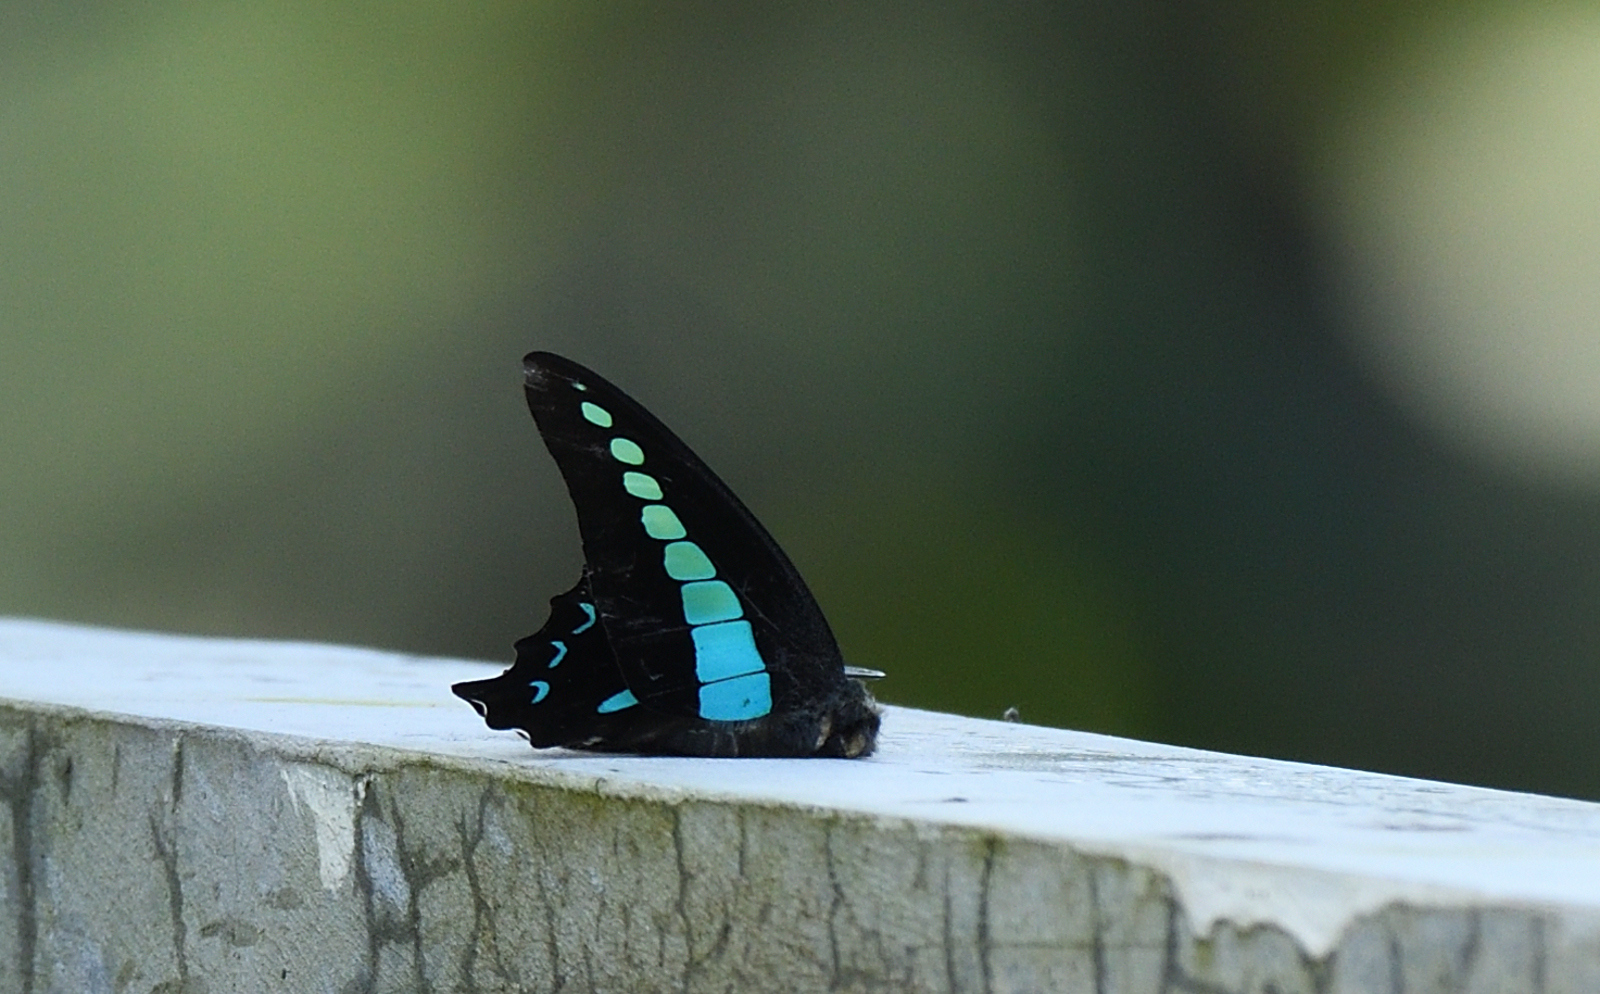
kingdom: Animalia
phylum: Arthropoda
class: Insecta
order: Lepidoptera
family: Papilionidae
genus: Graphium
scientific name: Graphium
